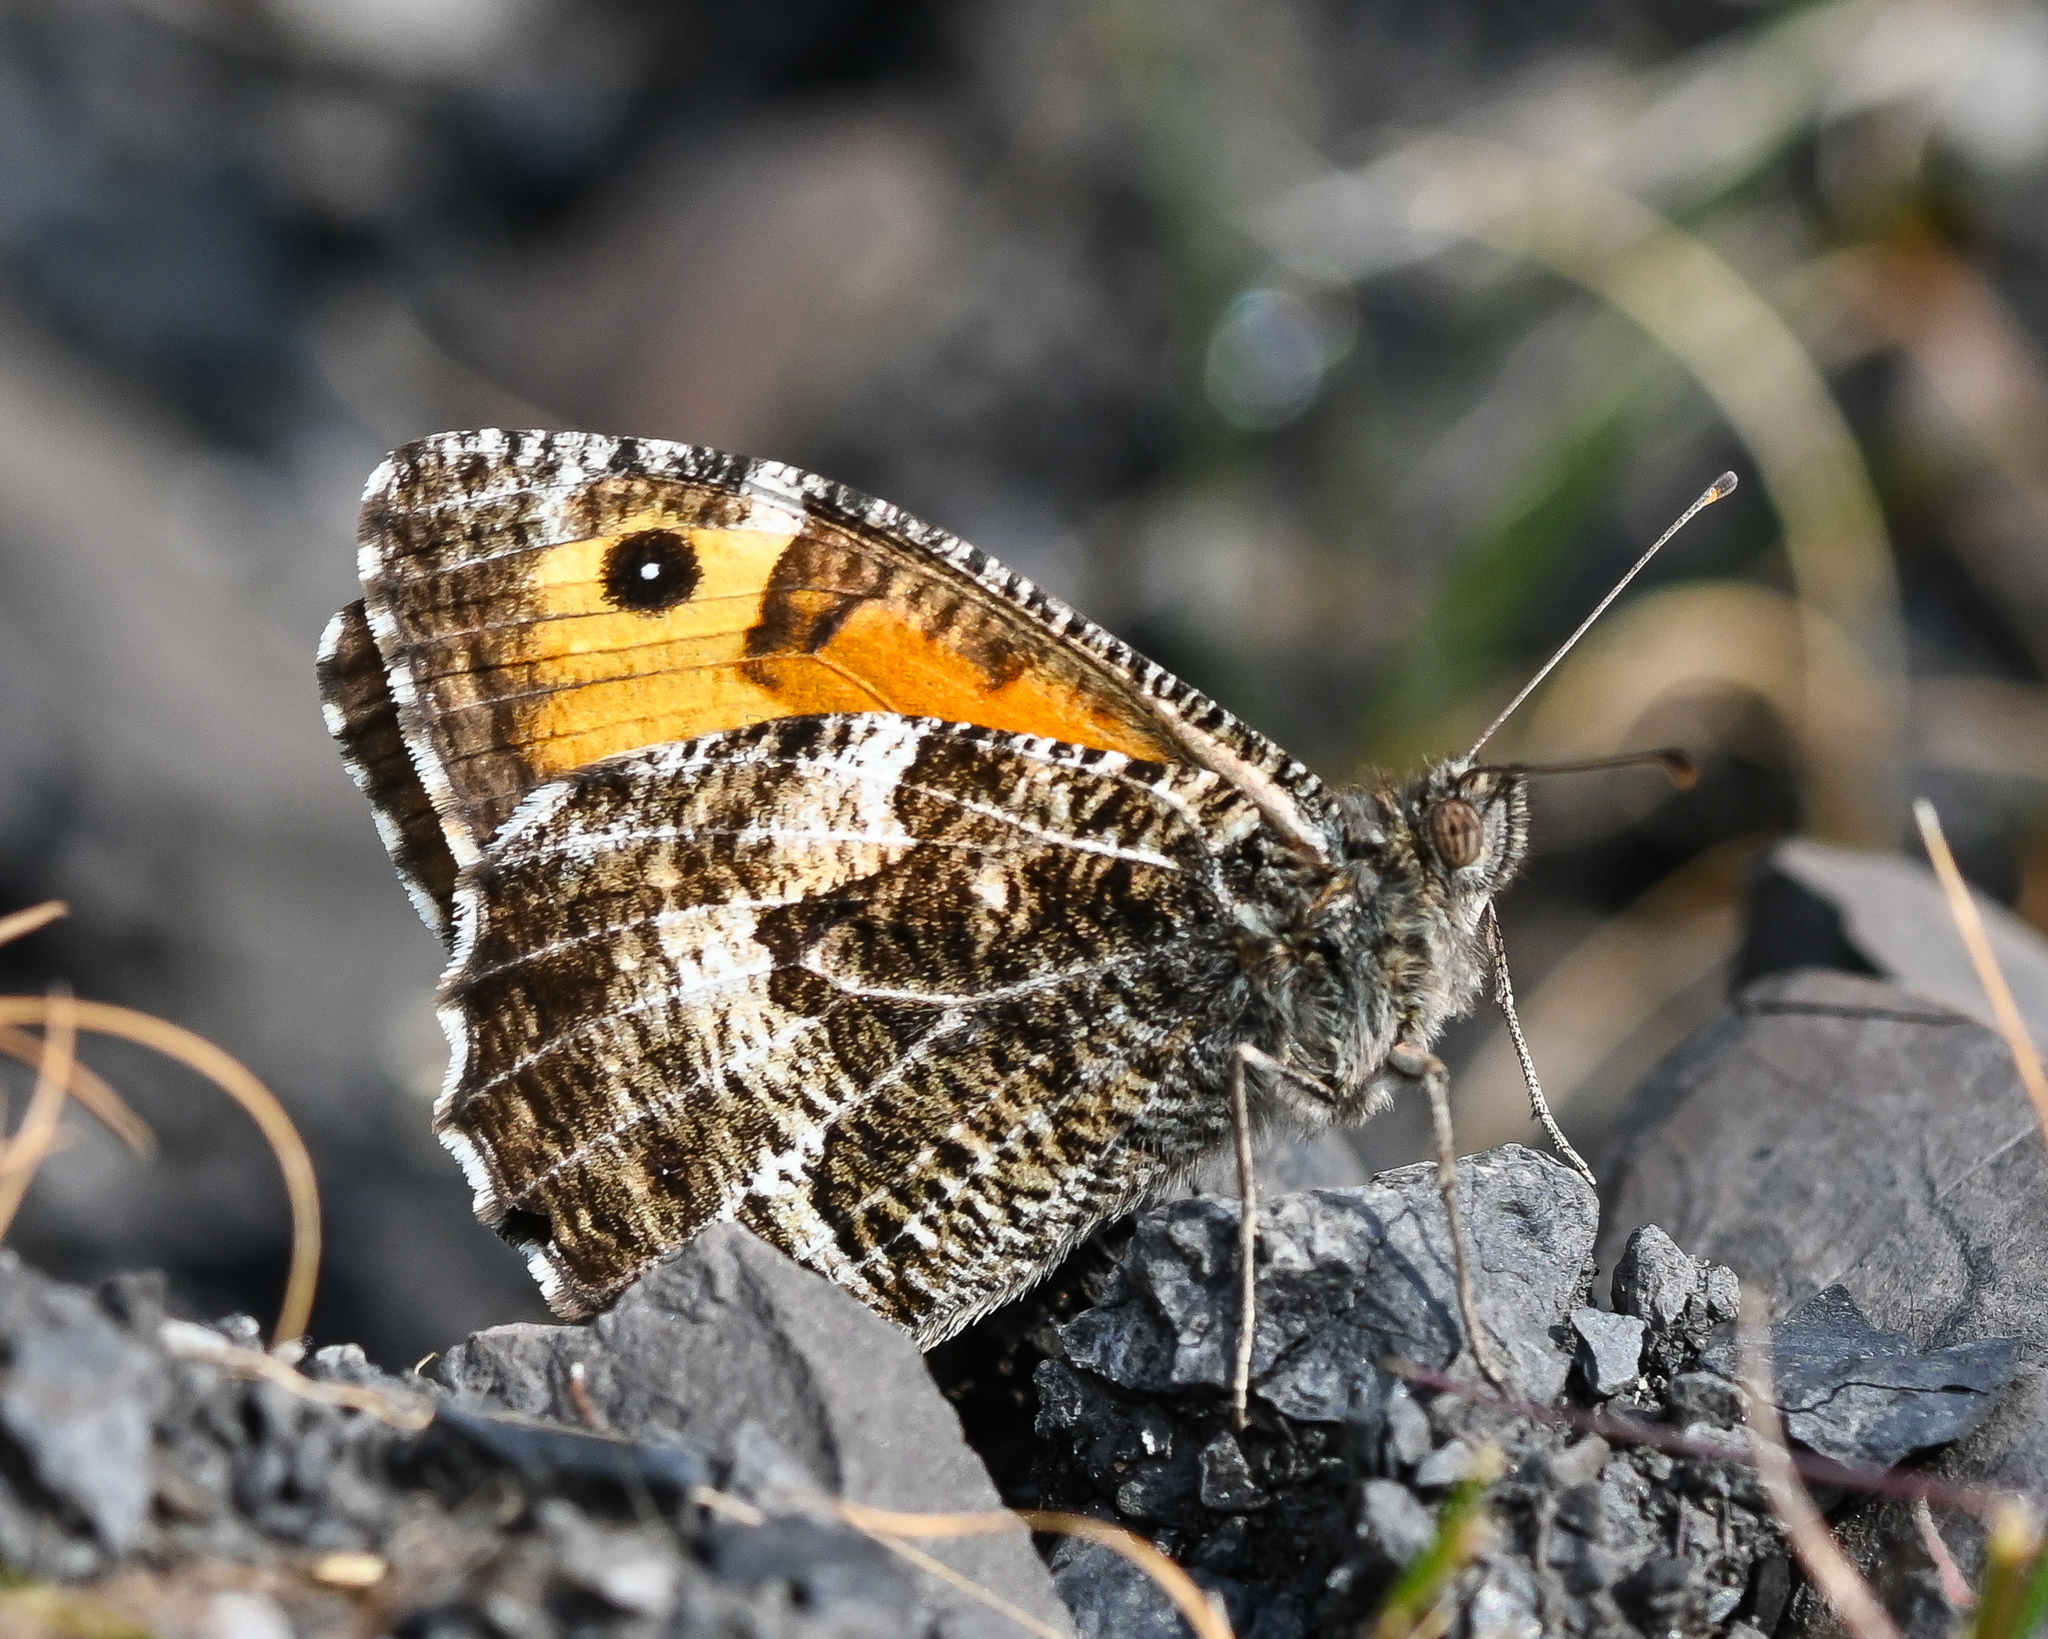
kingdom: Animalia
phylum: Arthropoda
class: Insecta
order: Lepidoptera
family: Nymphalidae
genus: Hipparchia
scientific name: Hipparchia semele
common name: Grayling
